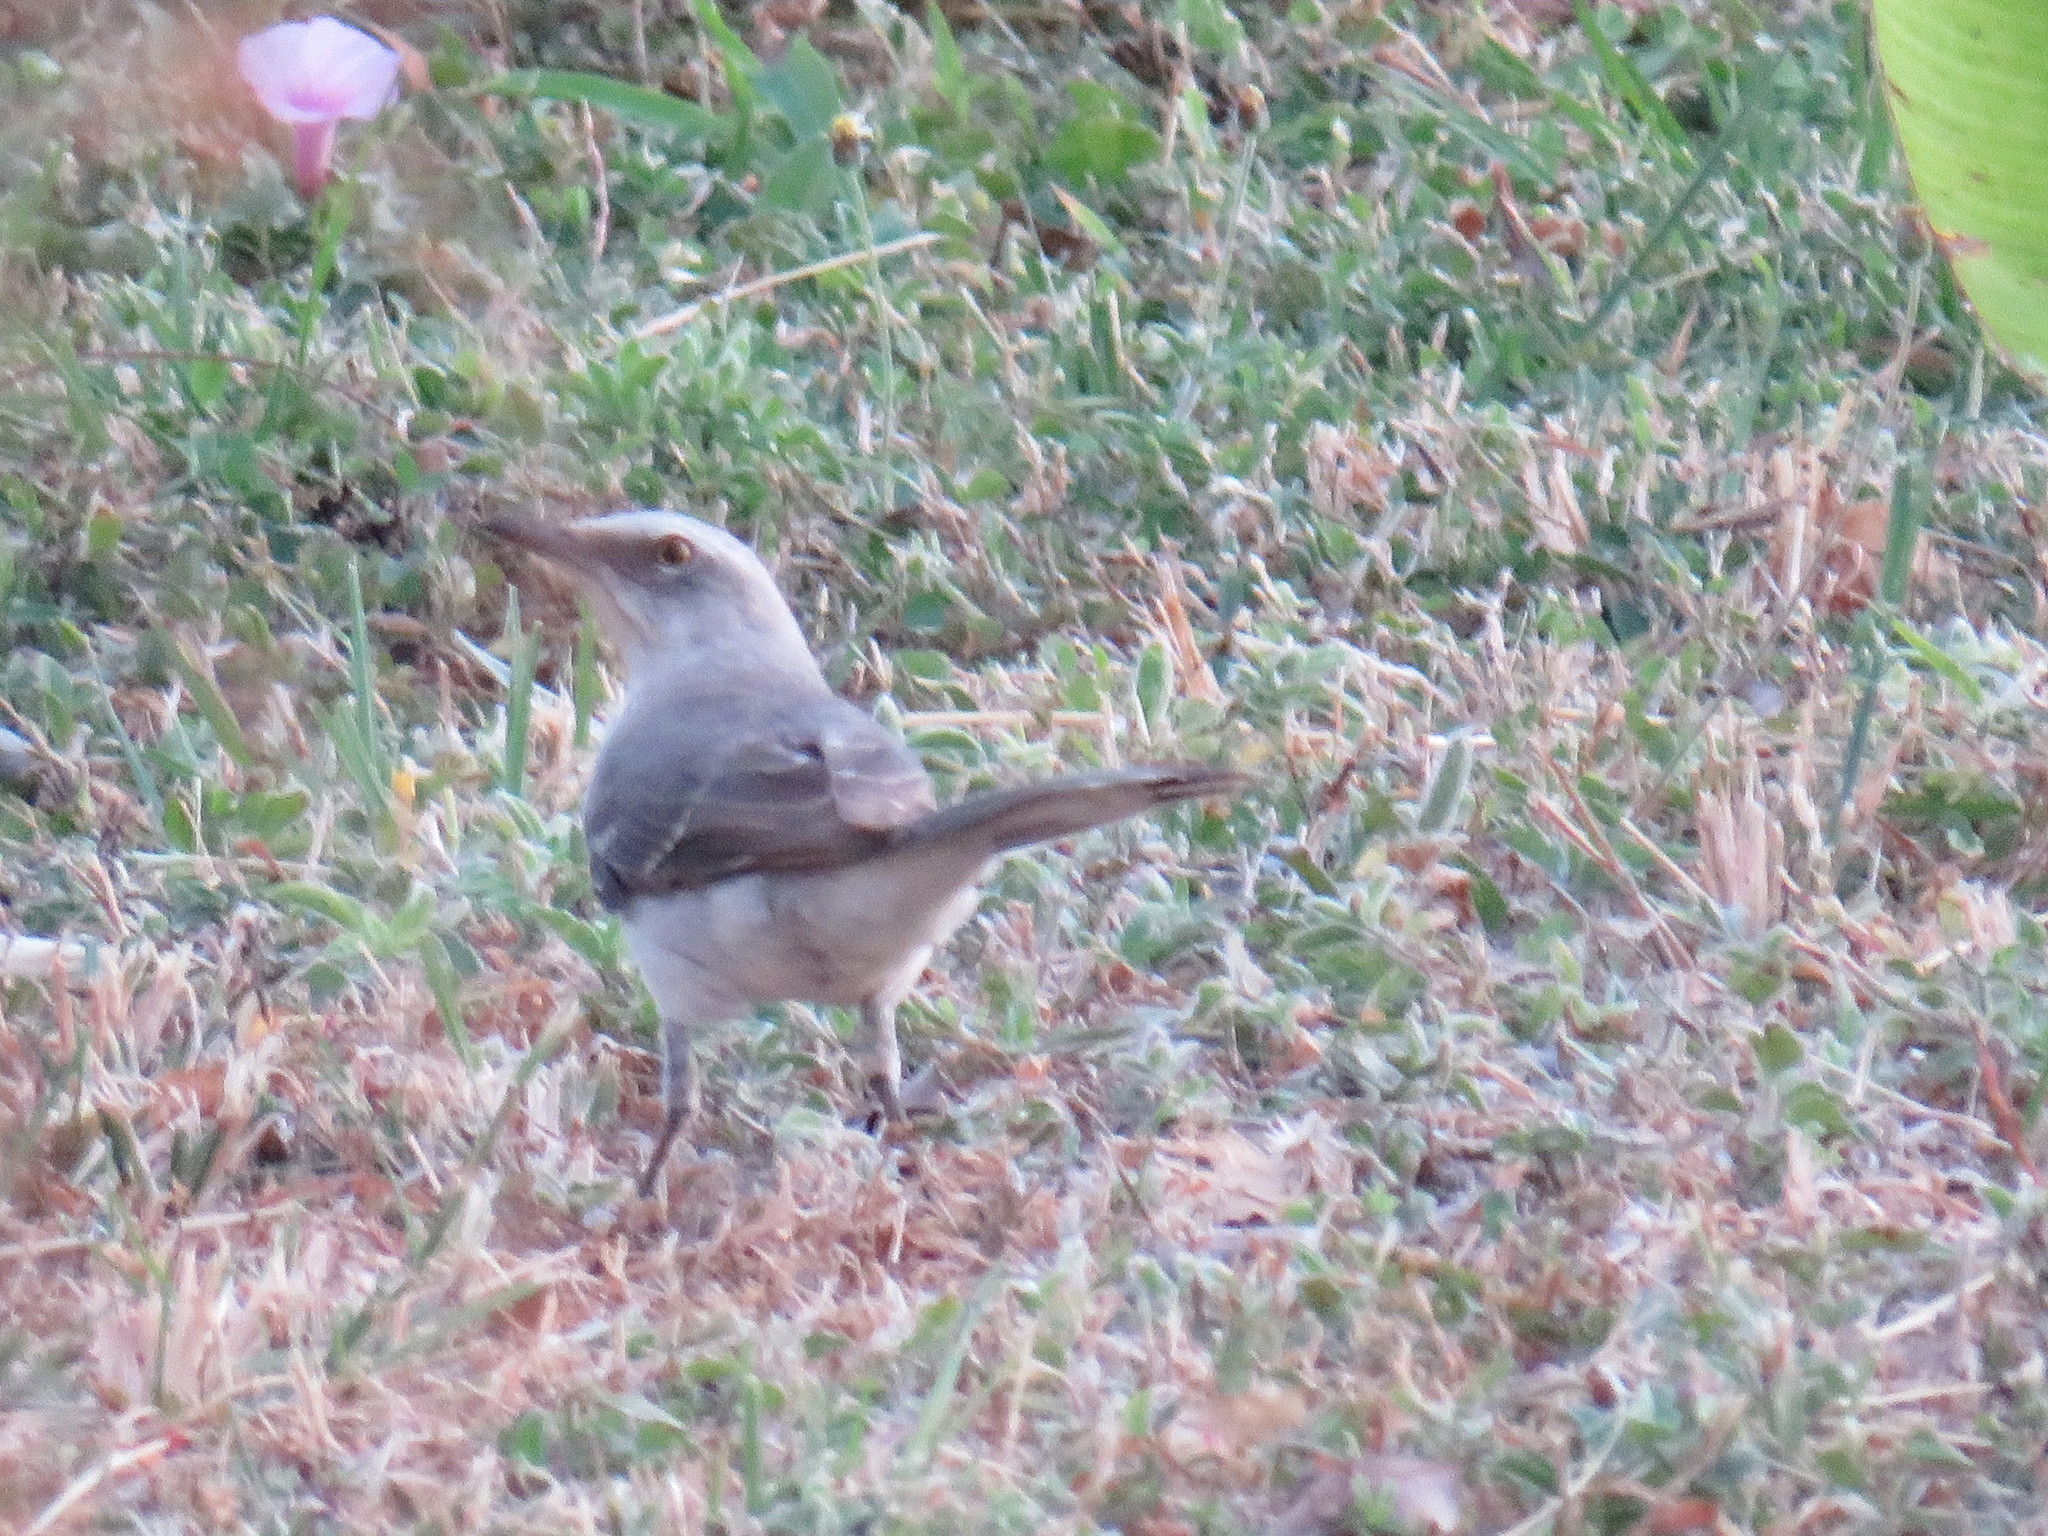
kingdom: Animalia
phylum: Chordata
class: Aves
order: Passeriformes
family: Mimidae
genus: Mimus
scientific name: Mimus gilvus
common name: Tropical mockingbird
